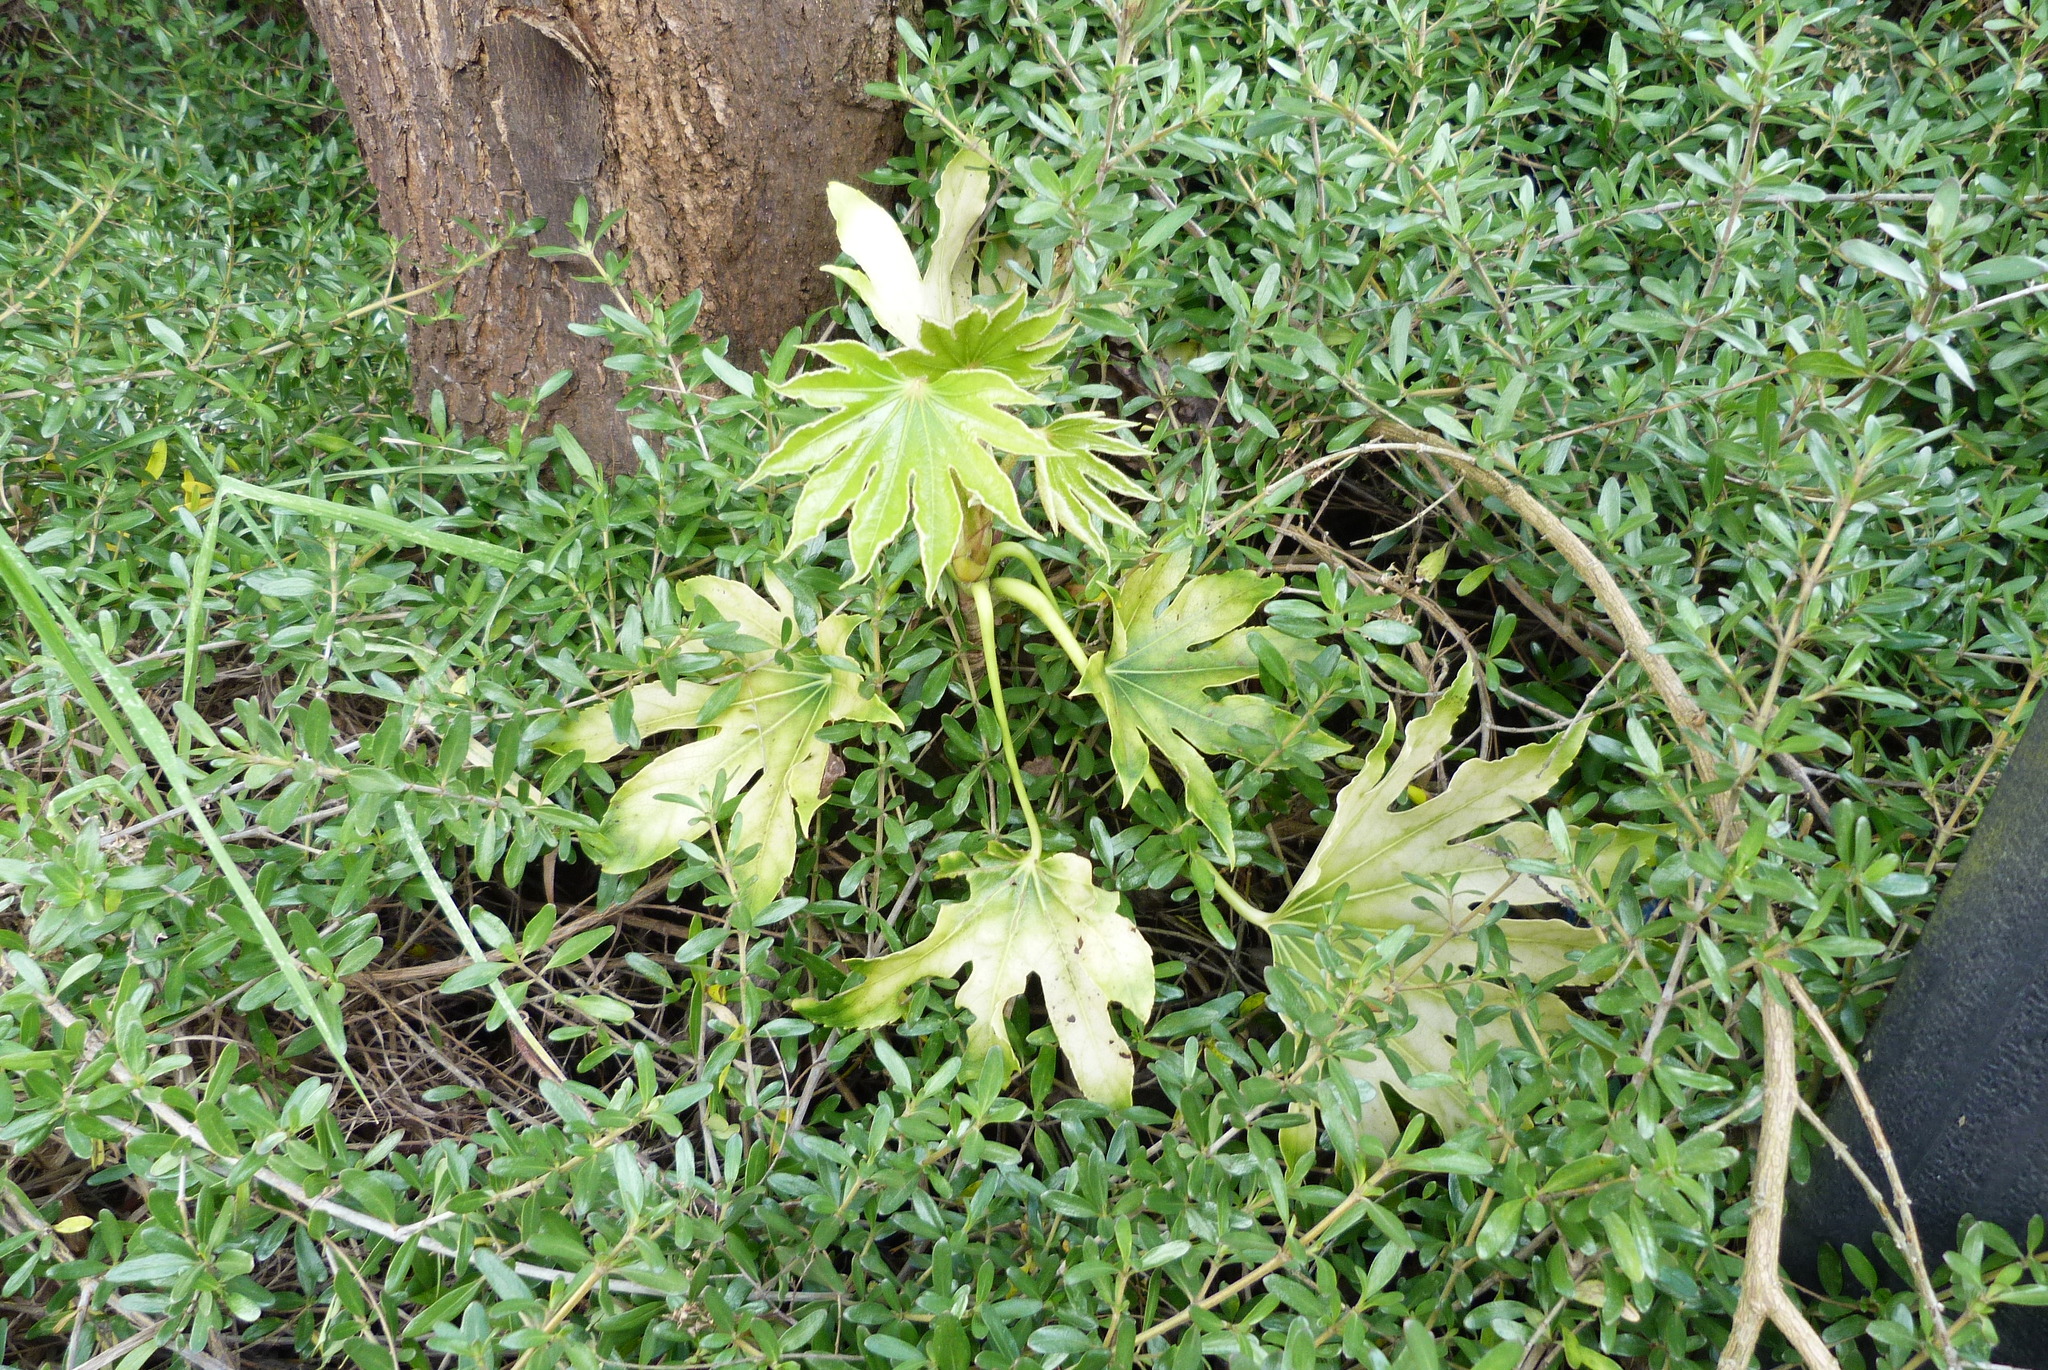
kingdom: Plantae
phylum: Tracheophyta
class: Magnoliopsida
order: Apiales
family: Araliaceae
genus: Fatsia
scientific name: Fatsia japonica
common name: Fatsia
